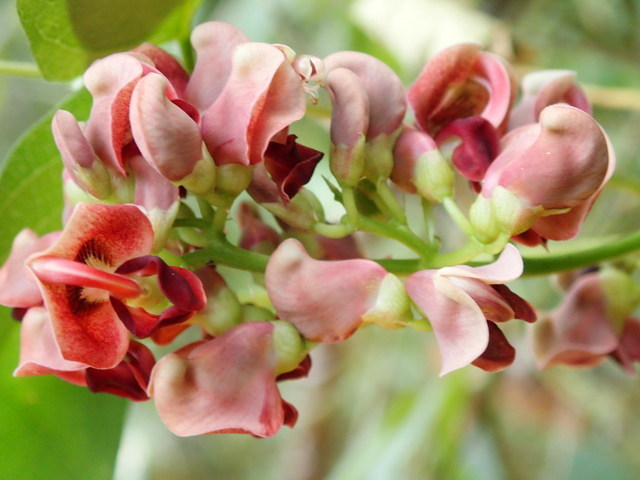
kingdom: Plantae
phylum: Tracheophyta
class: Magnoliopsida
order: Fabales
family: Fabaceae
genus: Apios
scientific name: Apios americana
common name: American potato-bean
